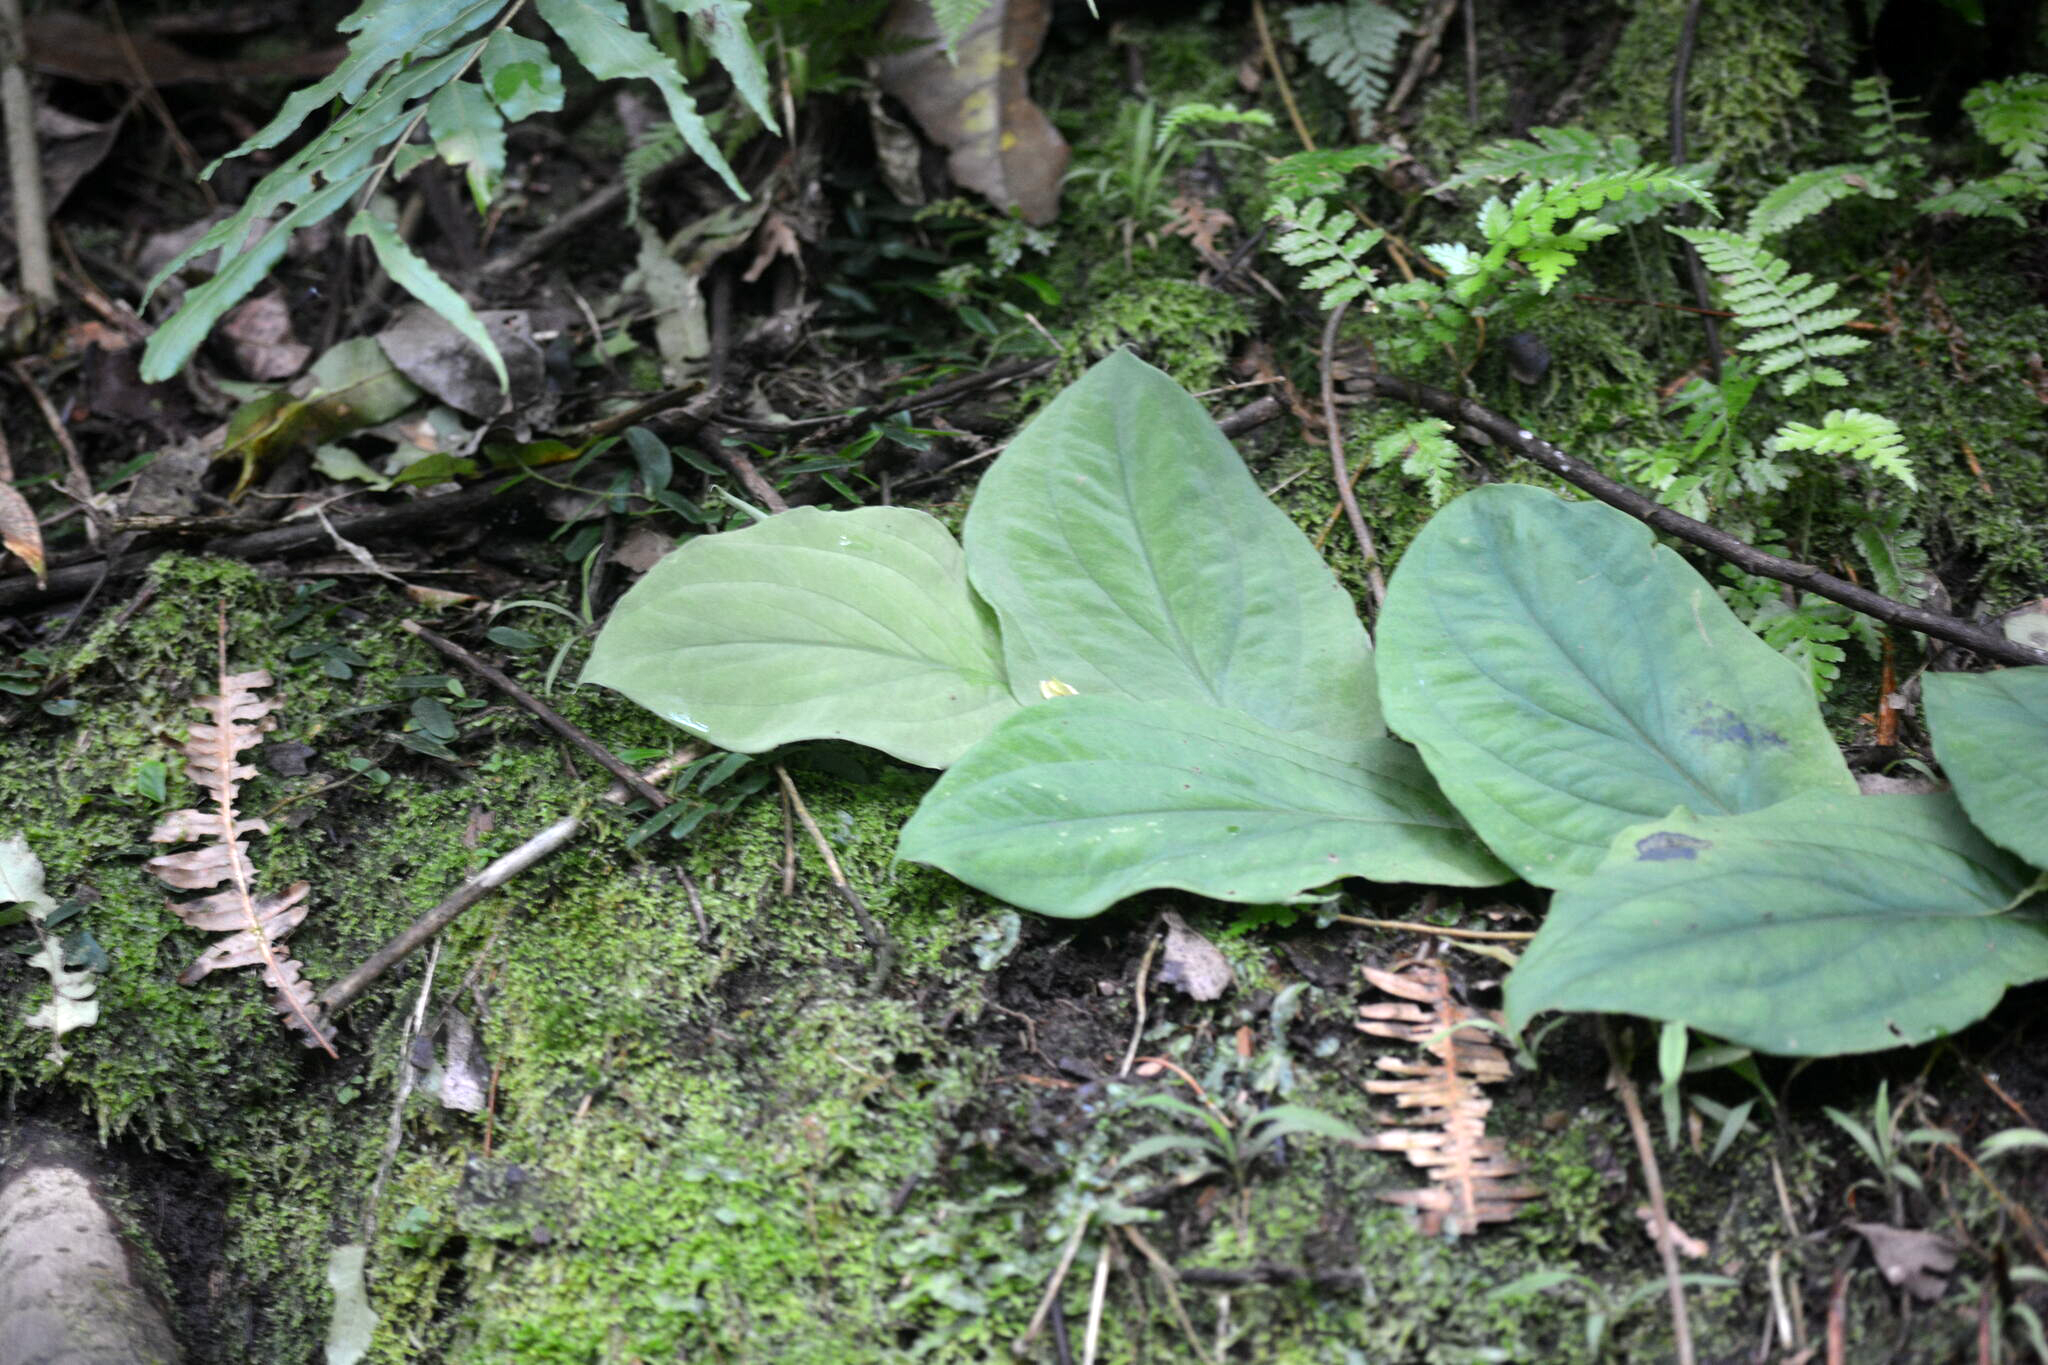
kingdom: Plantae
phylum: Tracheophyta
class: Liliopsida
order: Alismatales
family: Araceae
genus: Rhaphidophora
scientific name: Rhaphidophora korthalsii
